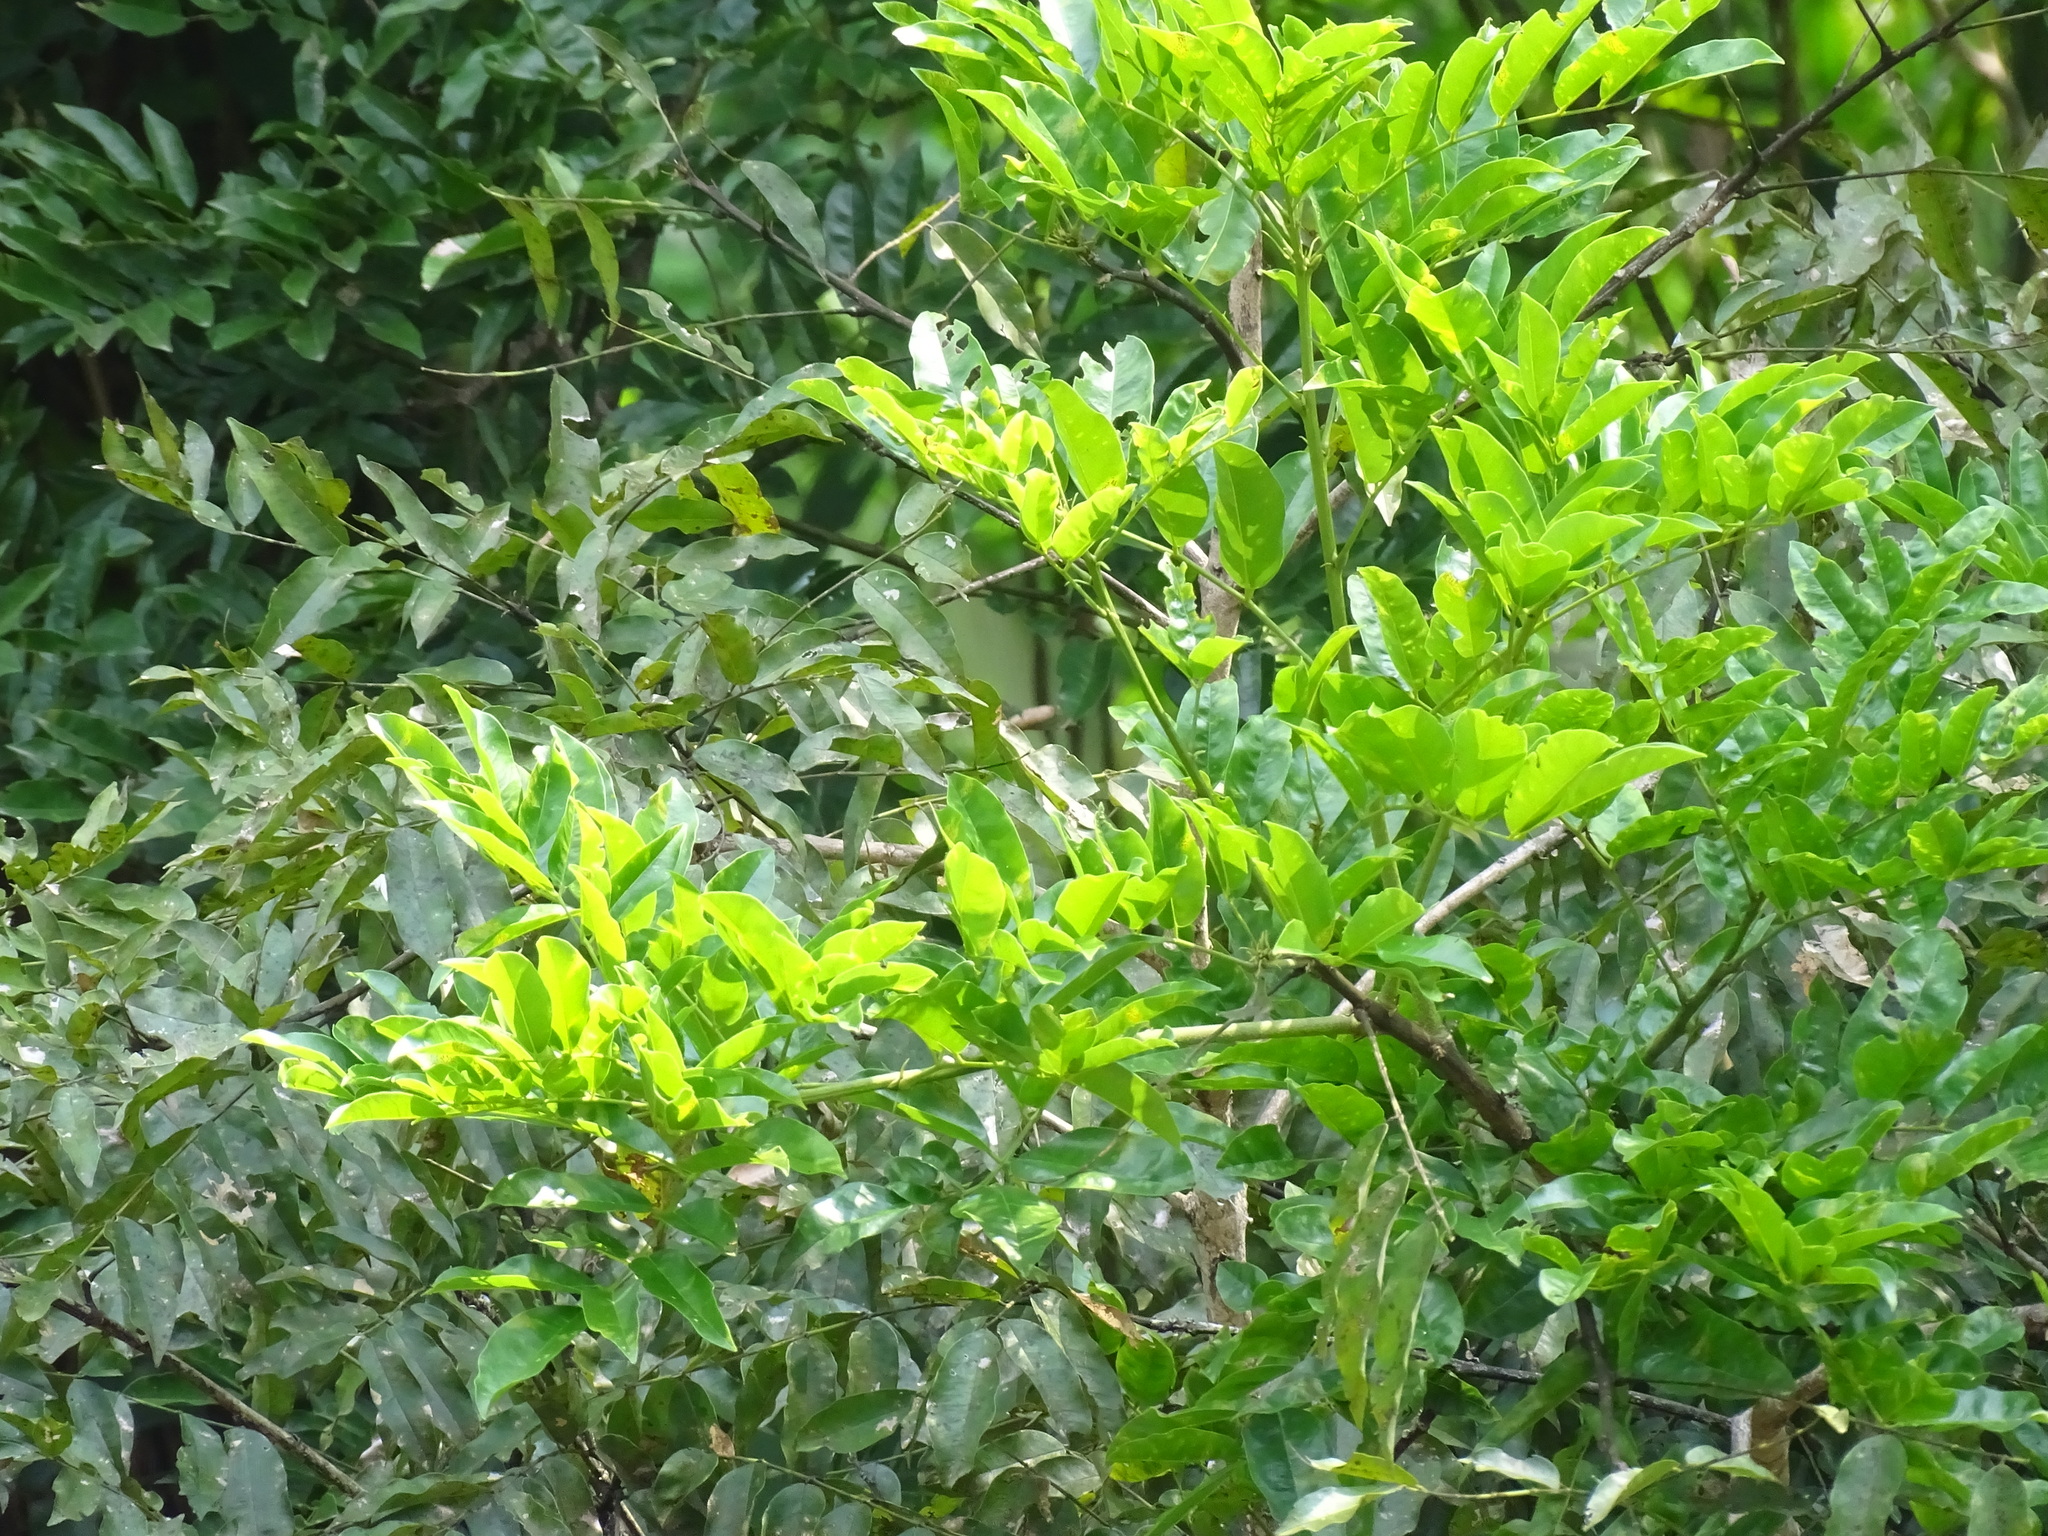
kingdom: Plantae
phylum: Tracheophyta
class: Magnoliopsida
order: Fabales
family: Fabaceae
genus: Andira
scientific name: Andira inermis
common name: Angelin
